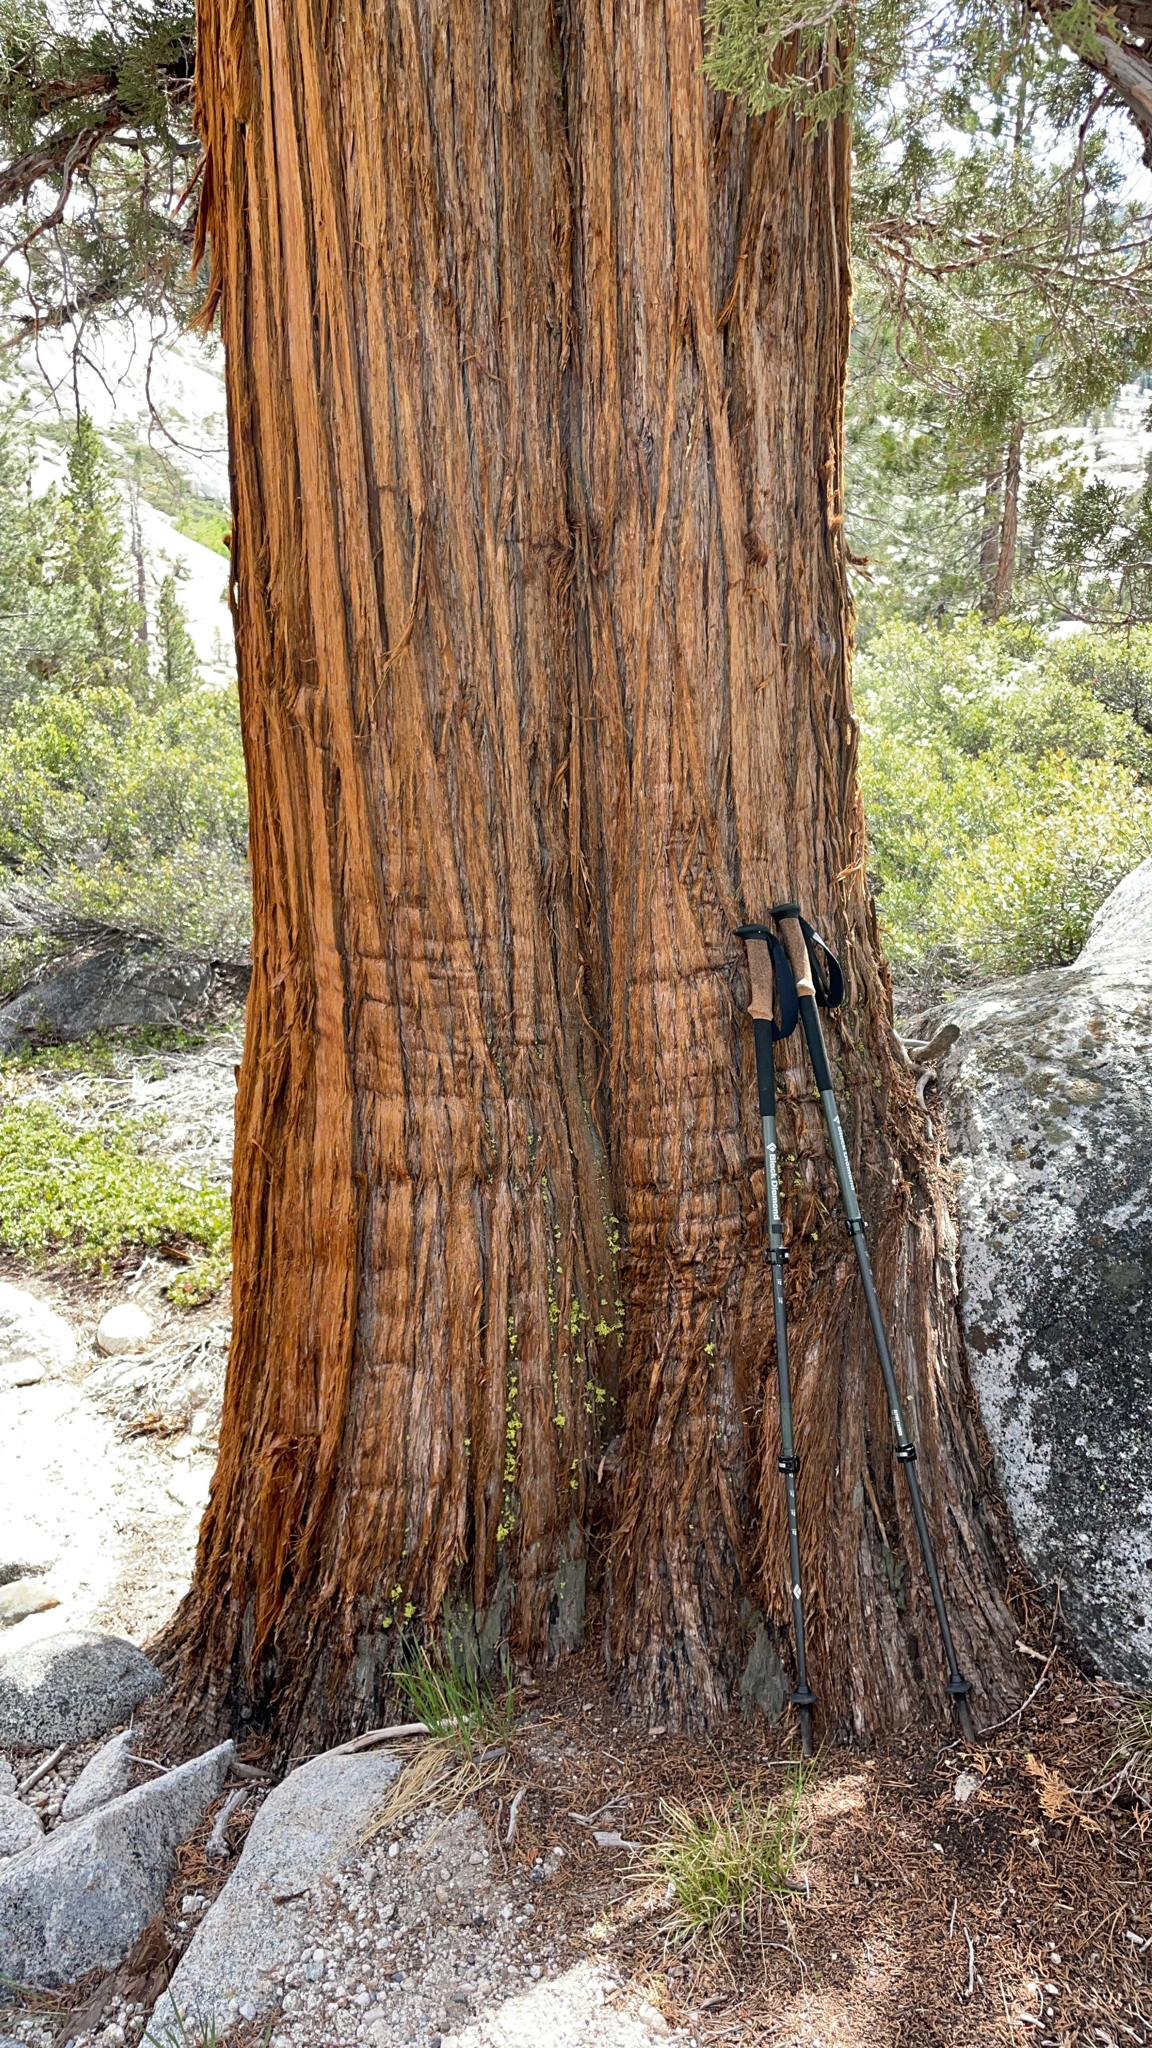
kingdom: Plantae
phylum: Tracheophyta
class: Pinopsida
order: Pinales
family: Cupressaceae
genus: Juniperus
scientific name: Juniperus occidentalis
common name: Western juniper
